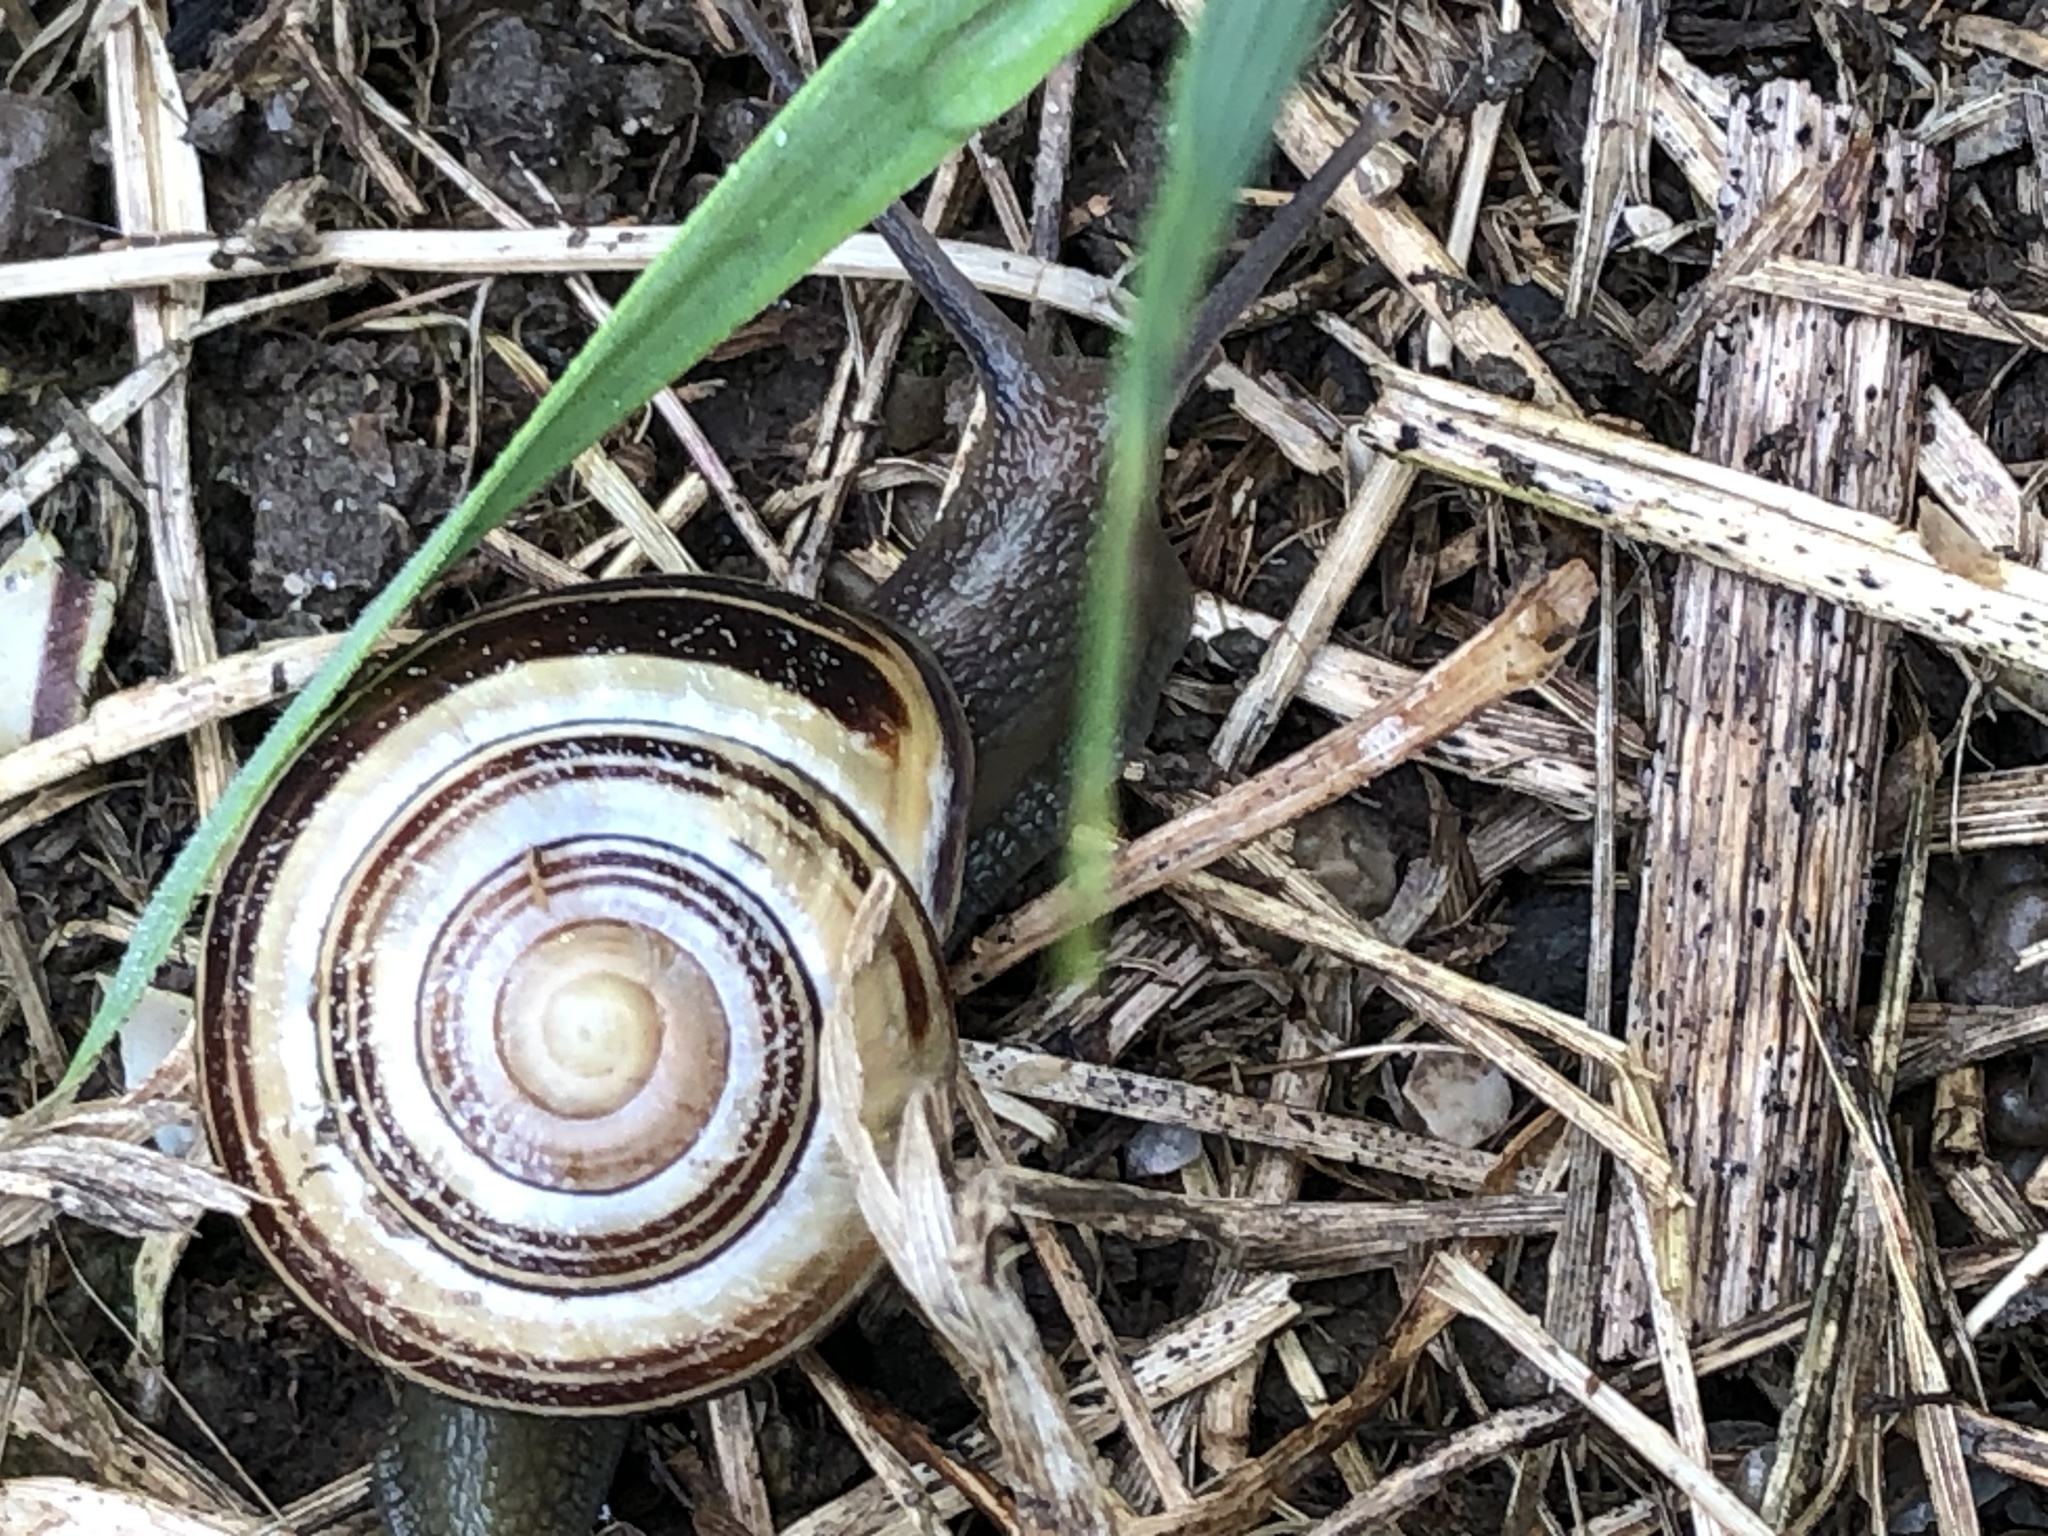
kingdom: Animalia
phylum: Mollusca
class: Gastropoda
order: Stylommatophora
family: Helicidae
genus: Cepaea
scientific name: Cepaea nemoralis
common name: Grovesnail
